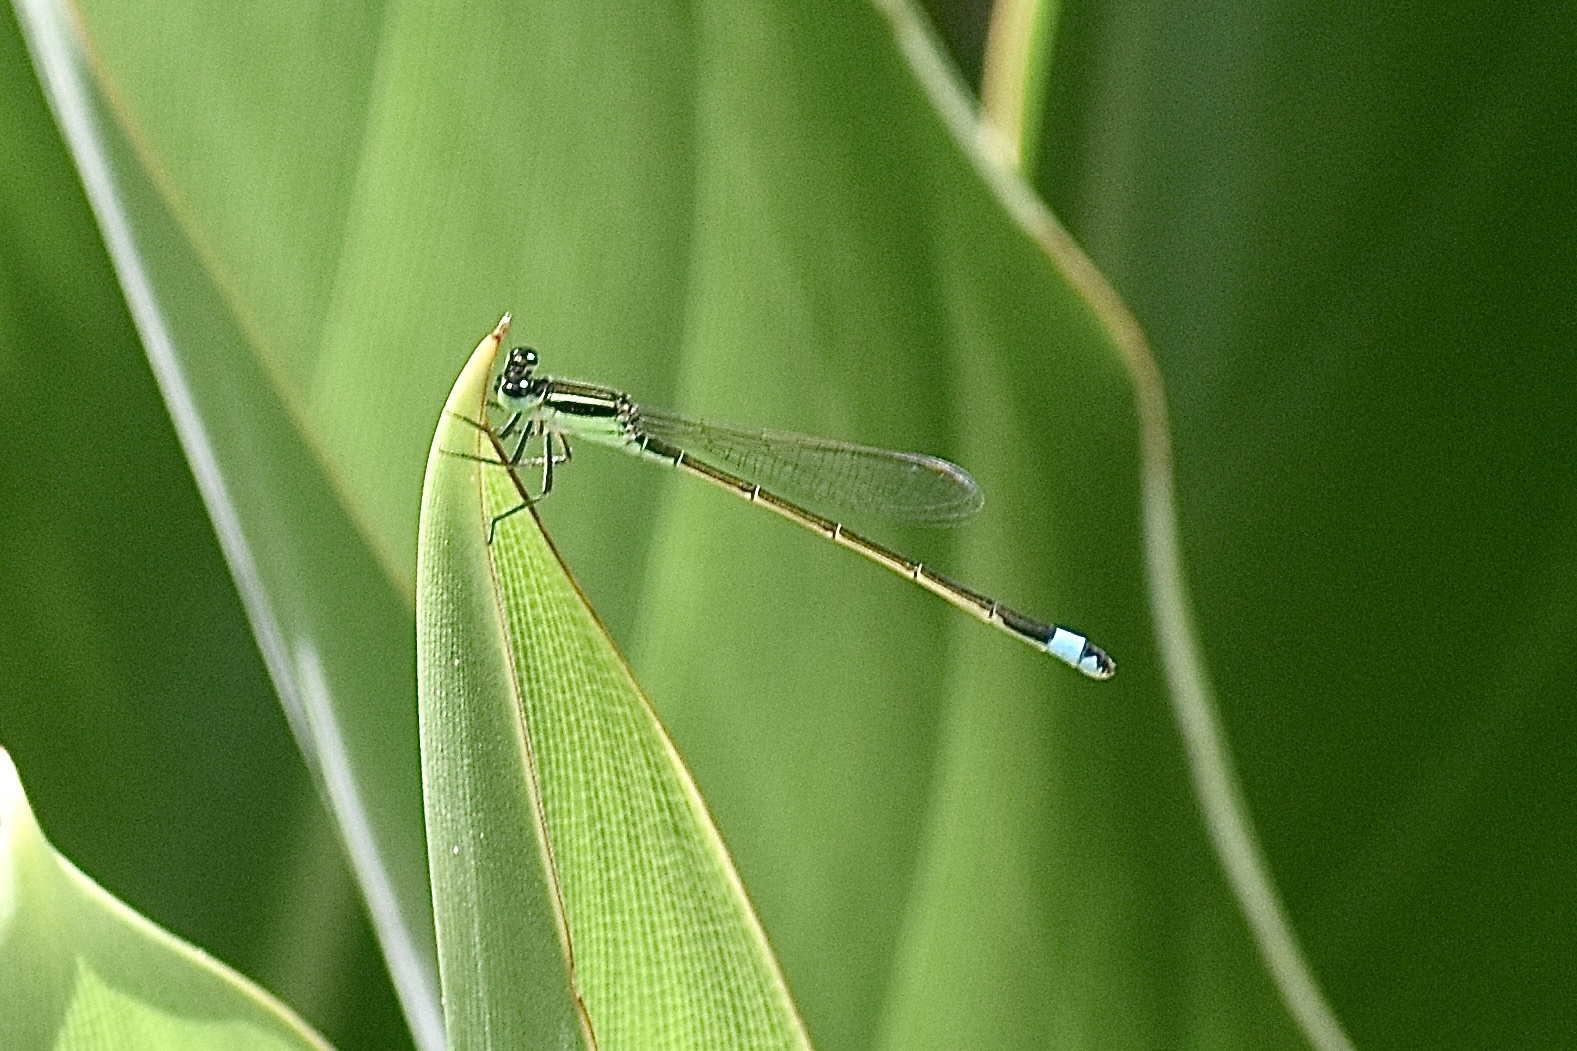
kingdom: Animalia
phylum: Arthropoda
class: Insecta
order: Odonata
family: Coenagrionidae
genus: Ischnura
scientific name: Ischnura ramburii
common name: Rambur's forktail
